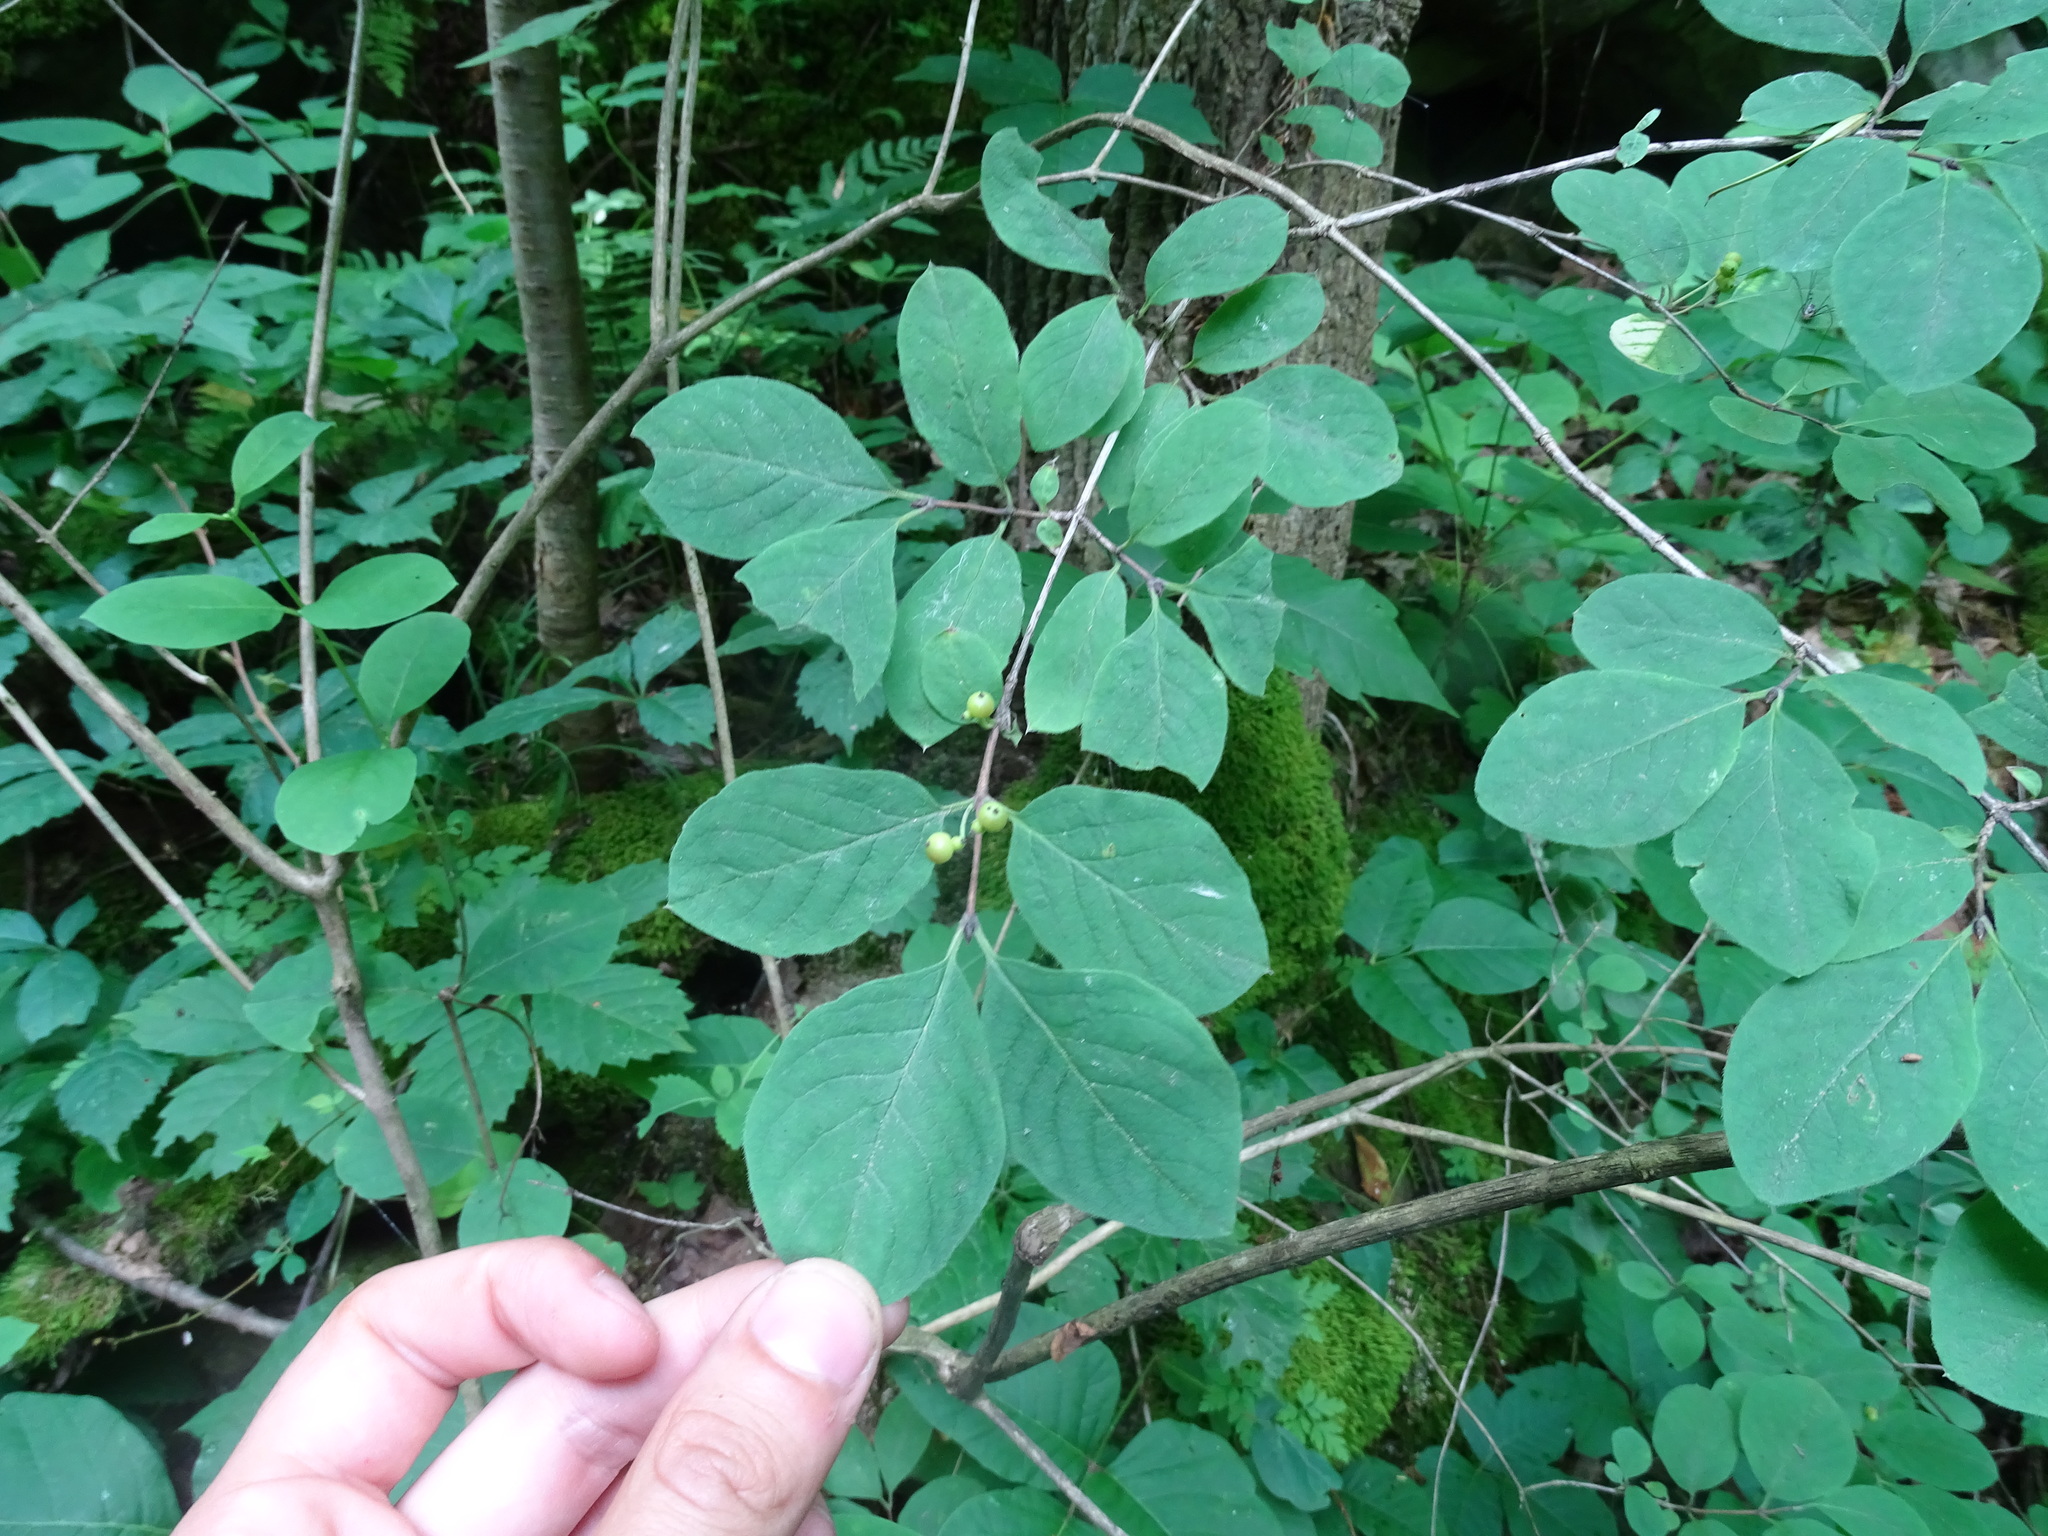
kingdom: Plantae
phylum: Tracheophyta
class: Magnoliopsida
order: Dipsacales
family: Caprifoliaceae
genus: Lonicera
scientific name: Lonicera xylosteum
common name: Fly honeysuckle
